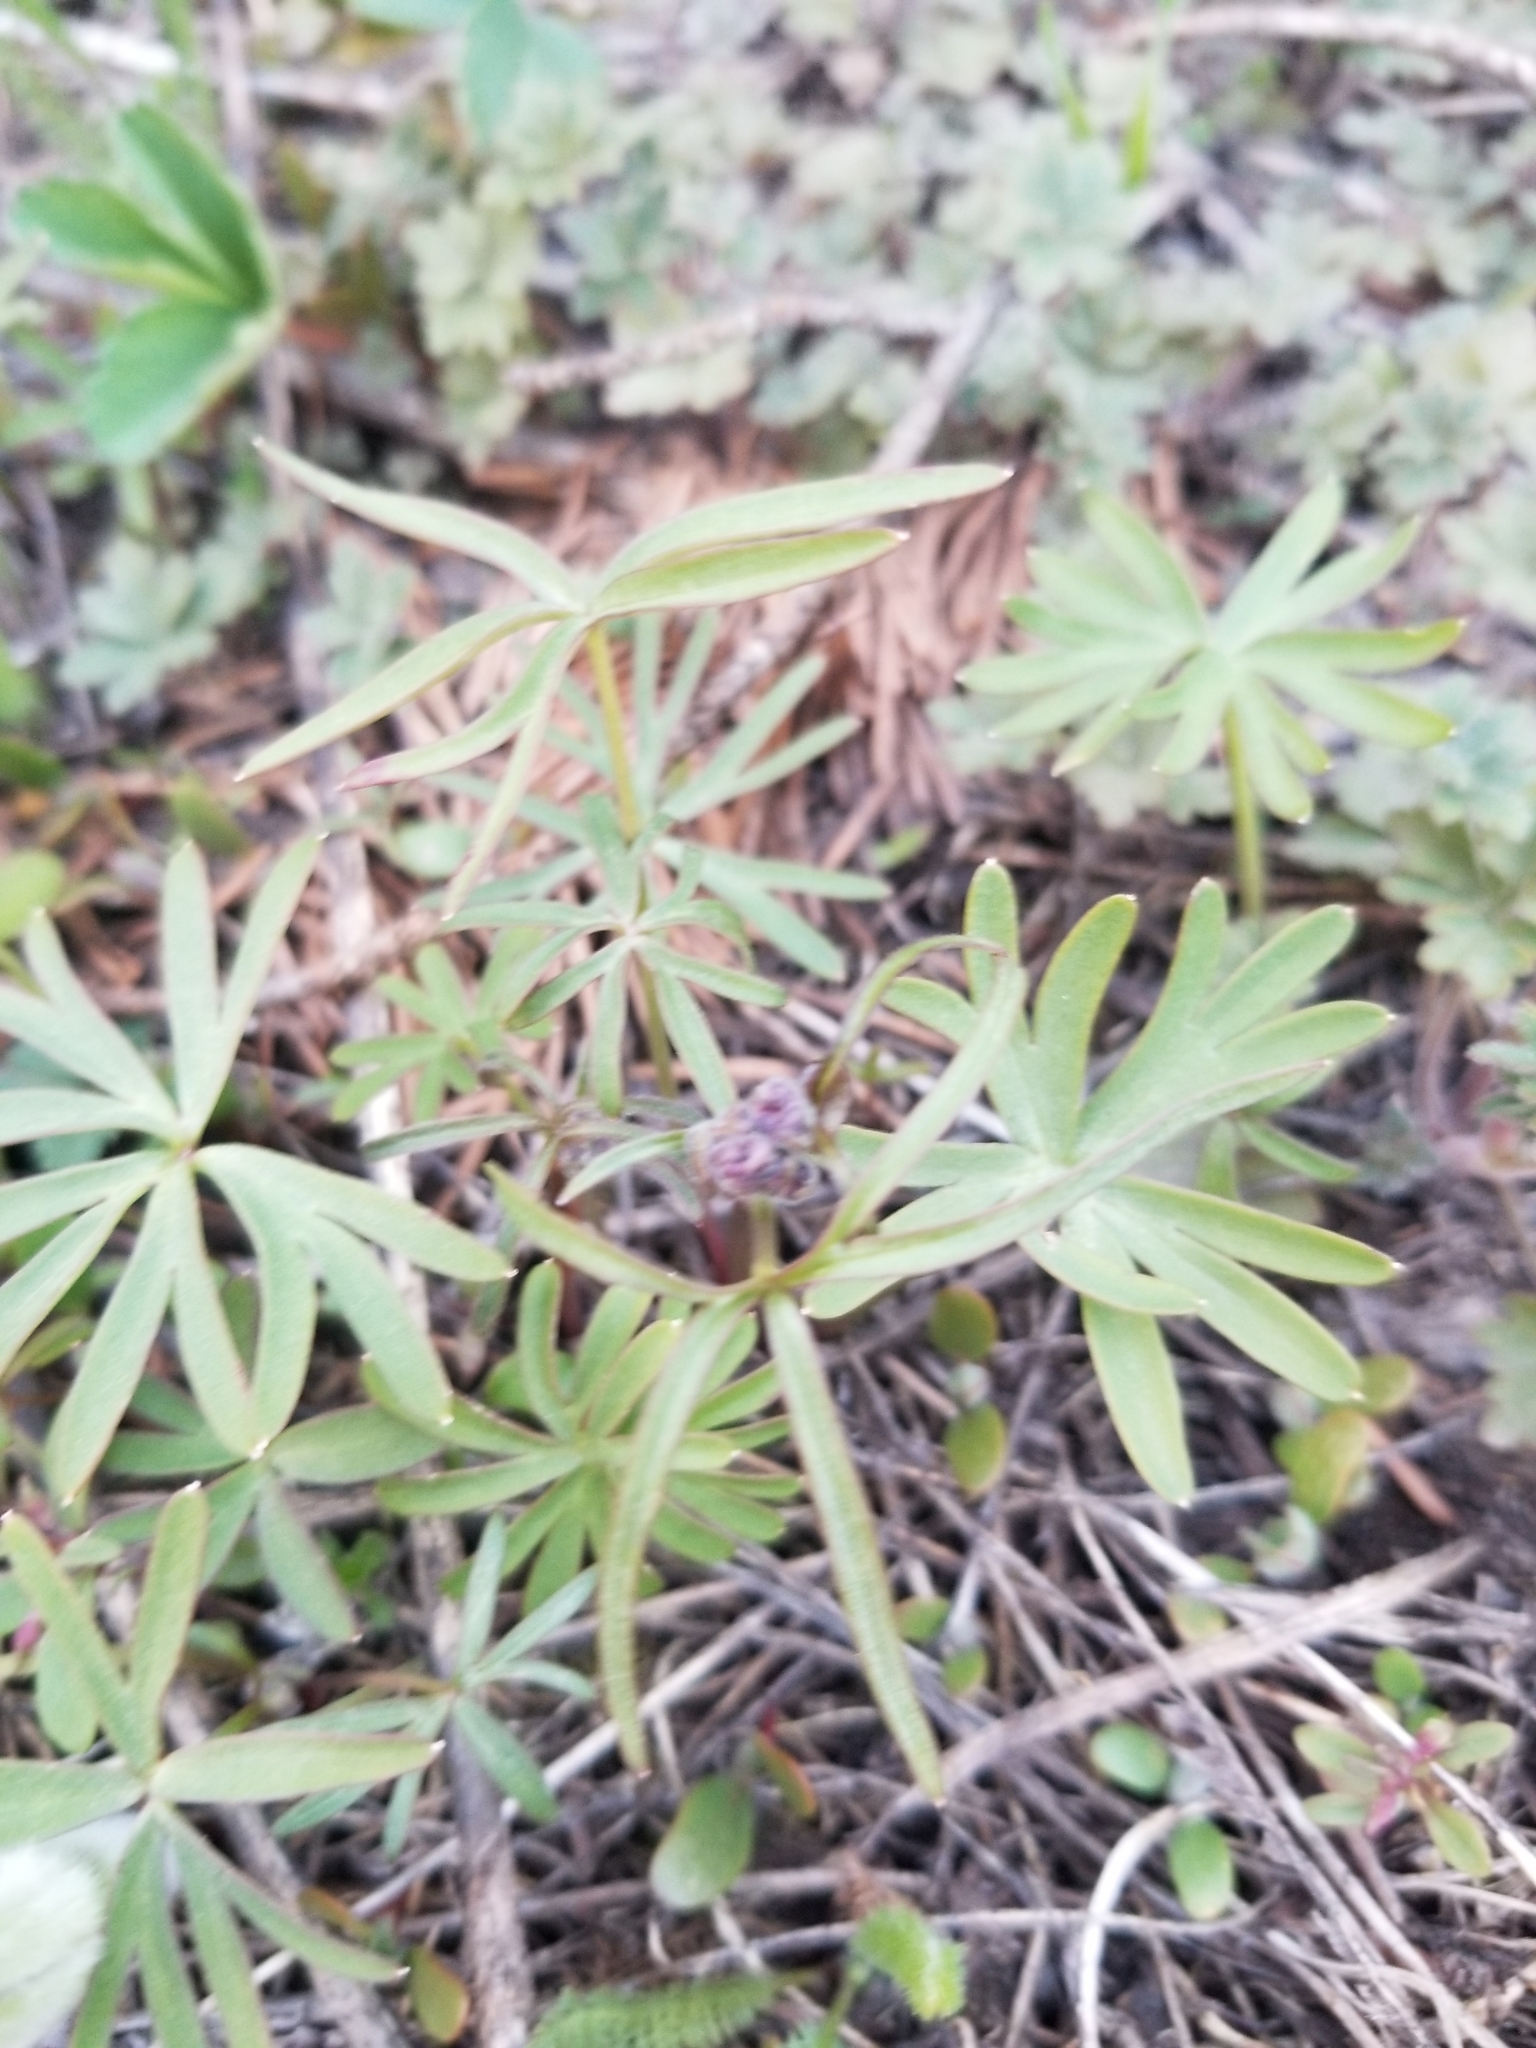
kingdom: Plantae
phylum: Tracheophyta
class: Magnoliopsida
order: Ranunculales
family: Ranunculaceae
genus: Delphinium
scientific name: Delphinium nuttallianum
